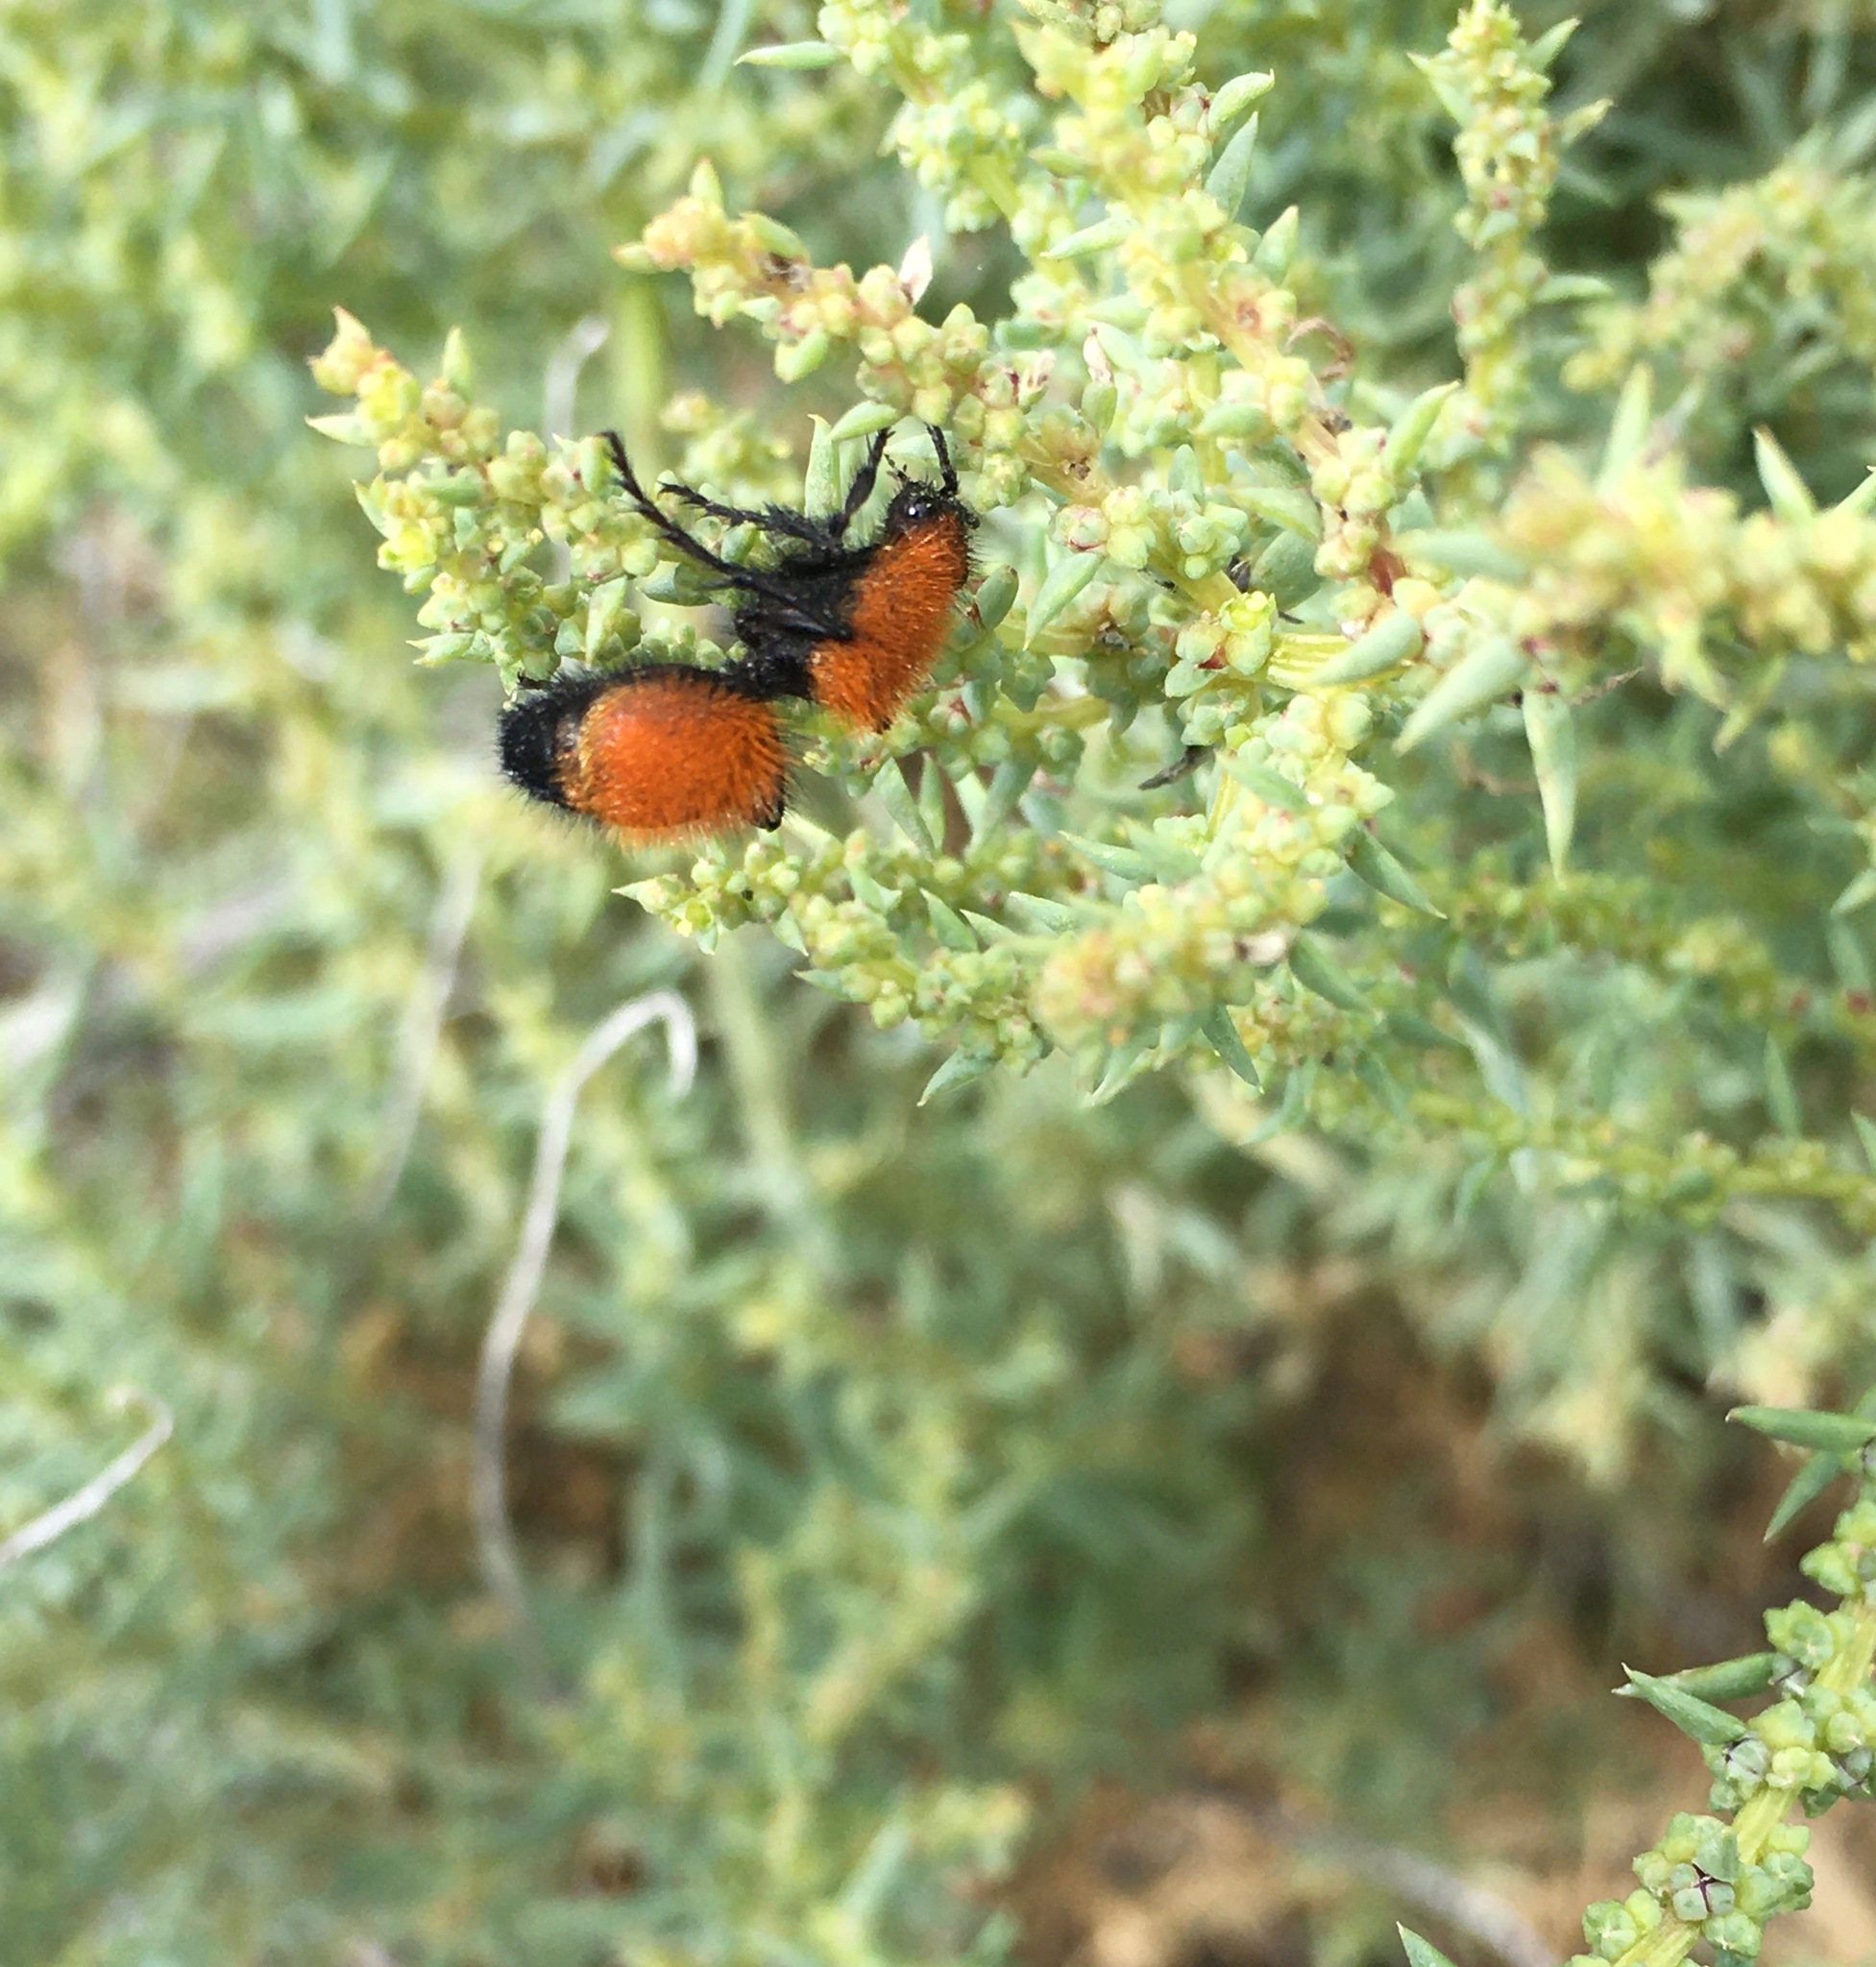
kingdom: Animalia
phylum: Arthropoda
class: Insecta
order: Hymenoptera
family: Mutillidae
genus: Dasymutilla
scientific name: Dasymutilla
